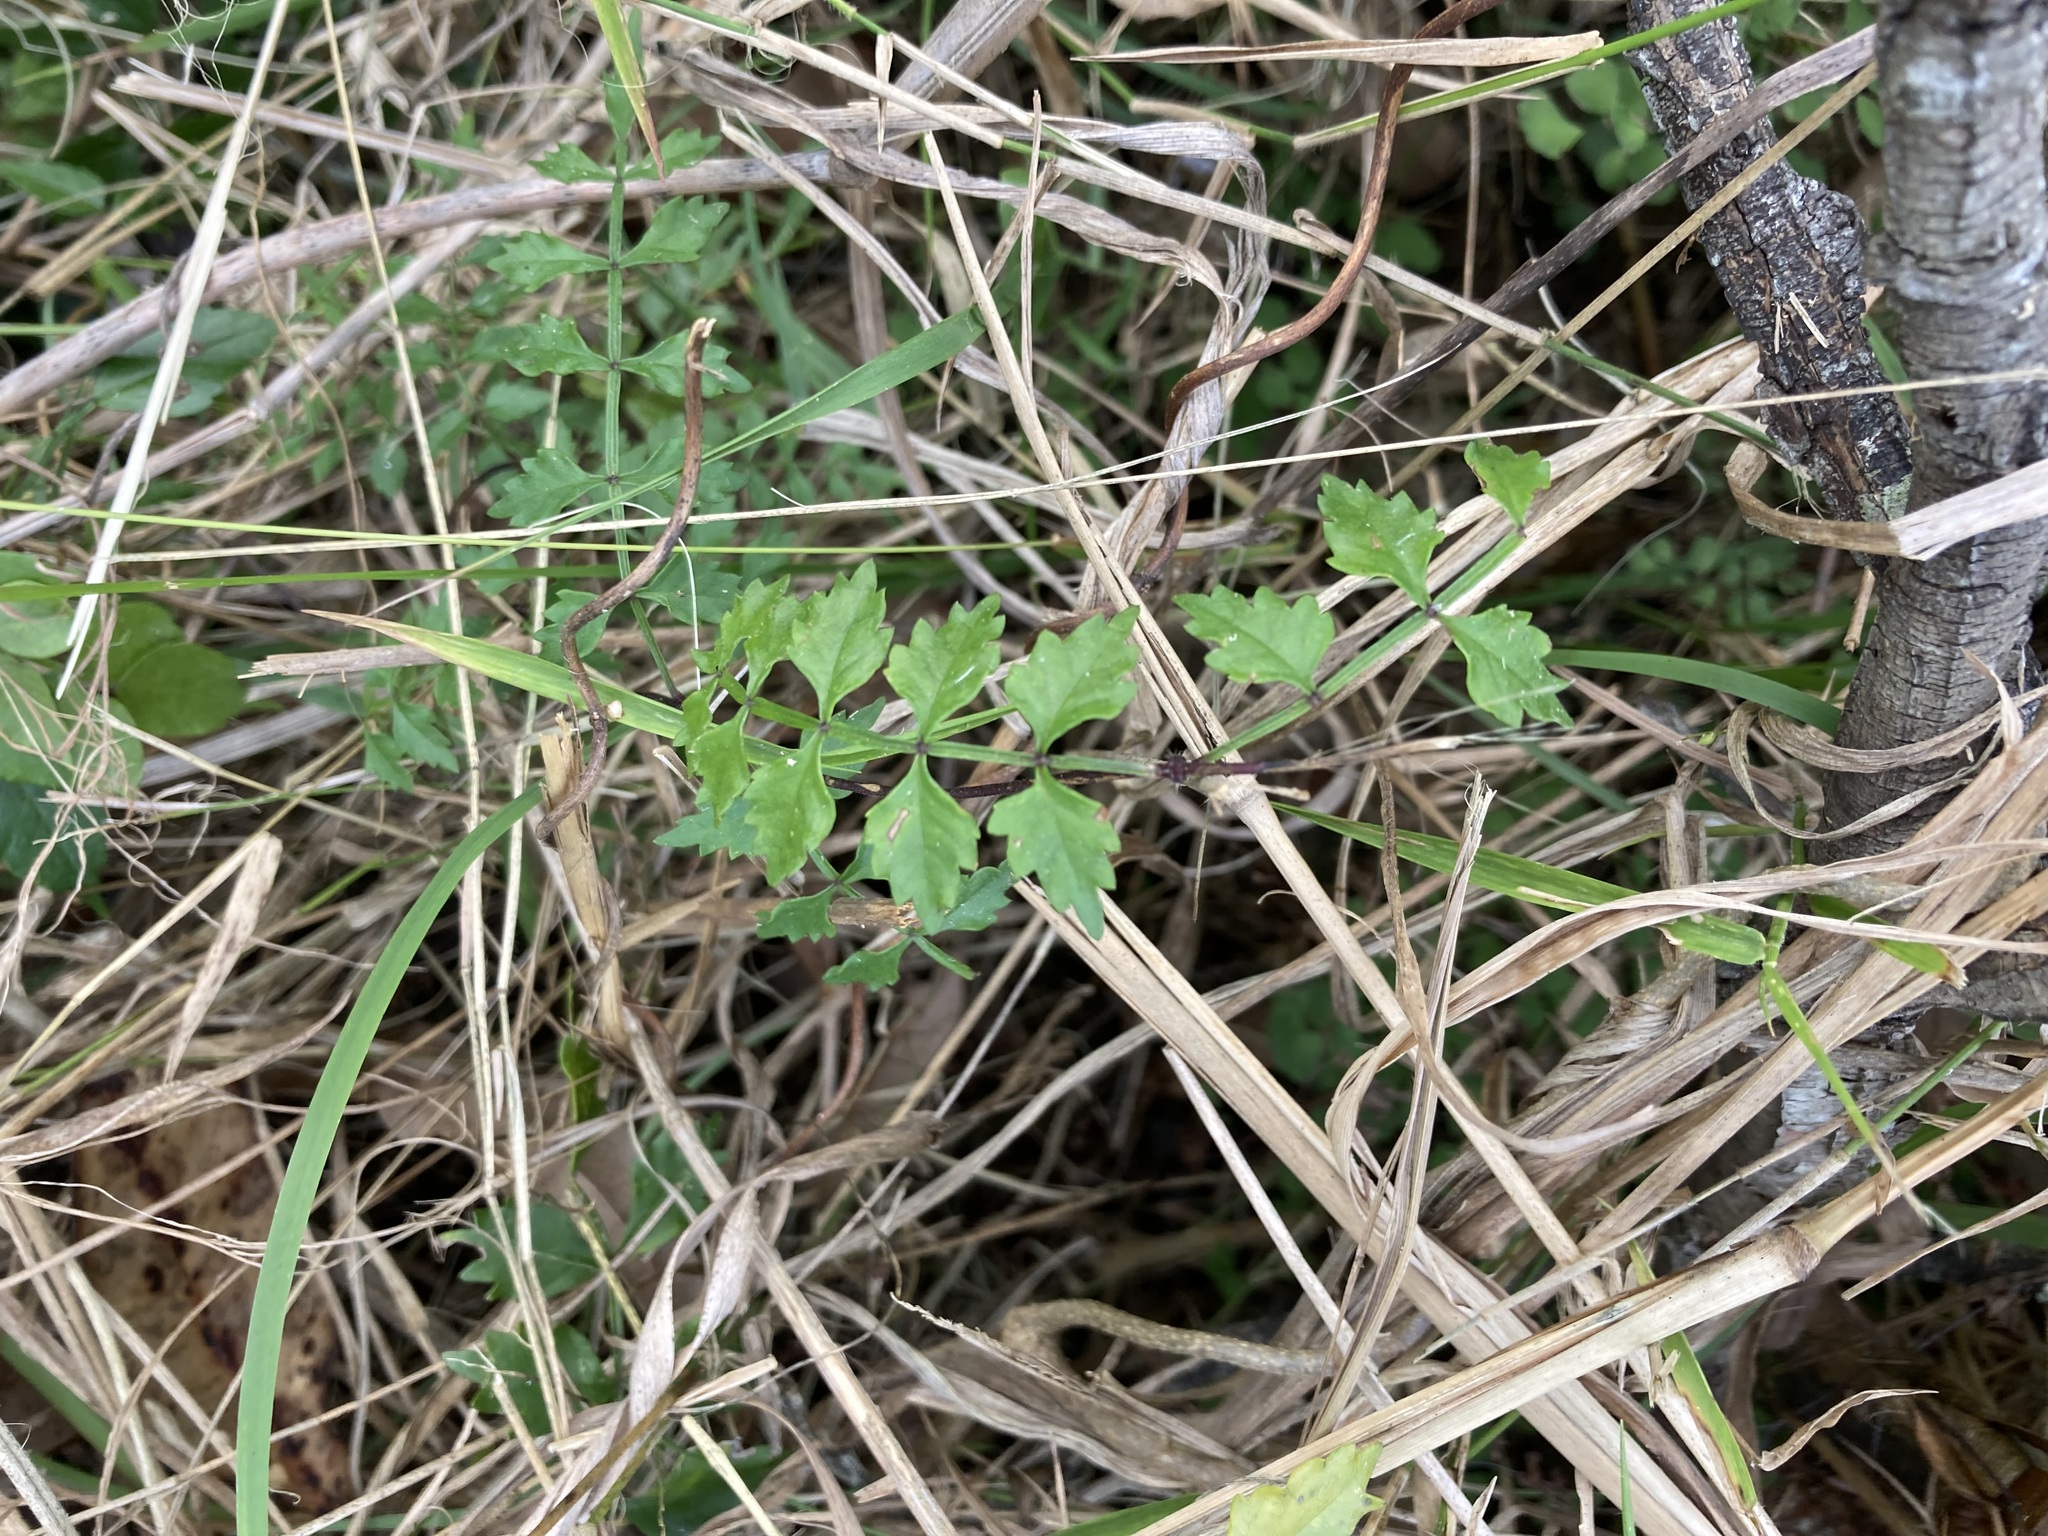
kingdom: Plantae
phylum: Tracheophyta
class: Magnoliopsida
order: Lamiales
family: Bignoniaceae
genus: Pandorea
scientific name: Pandorea pandorana
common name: Wonga-wonga-vine
